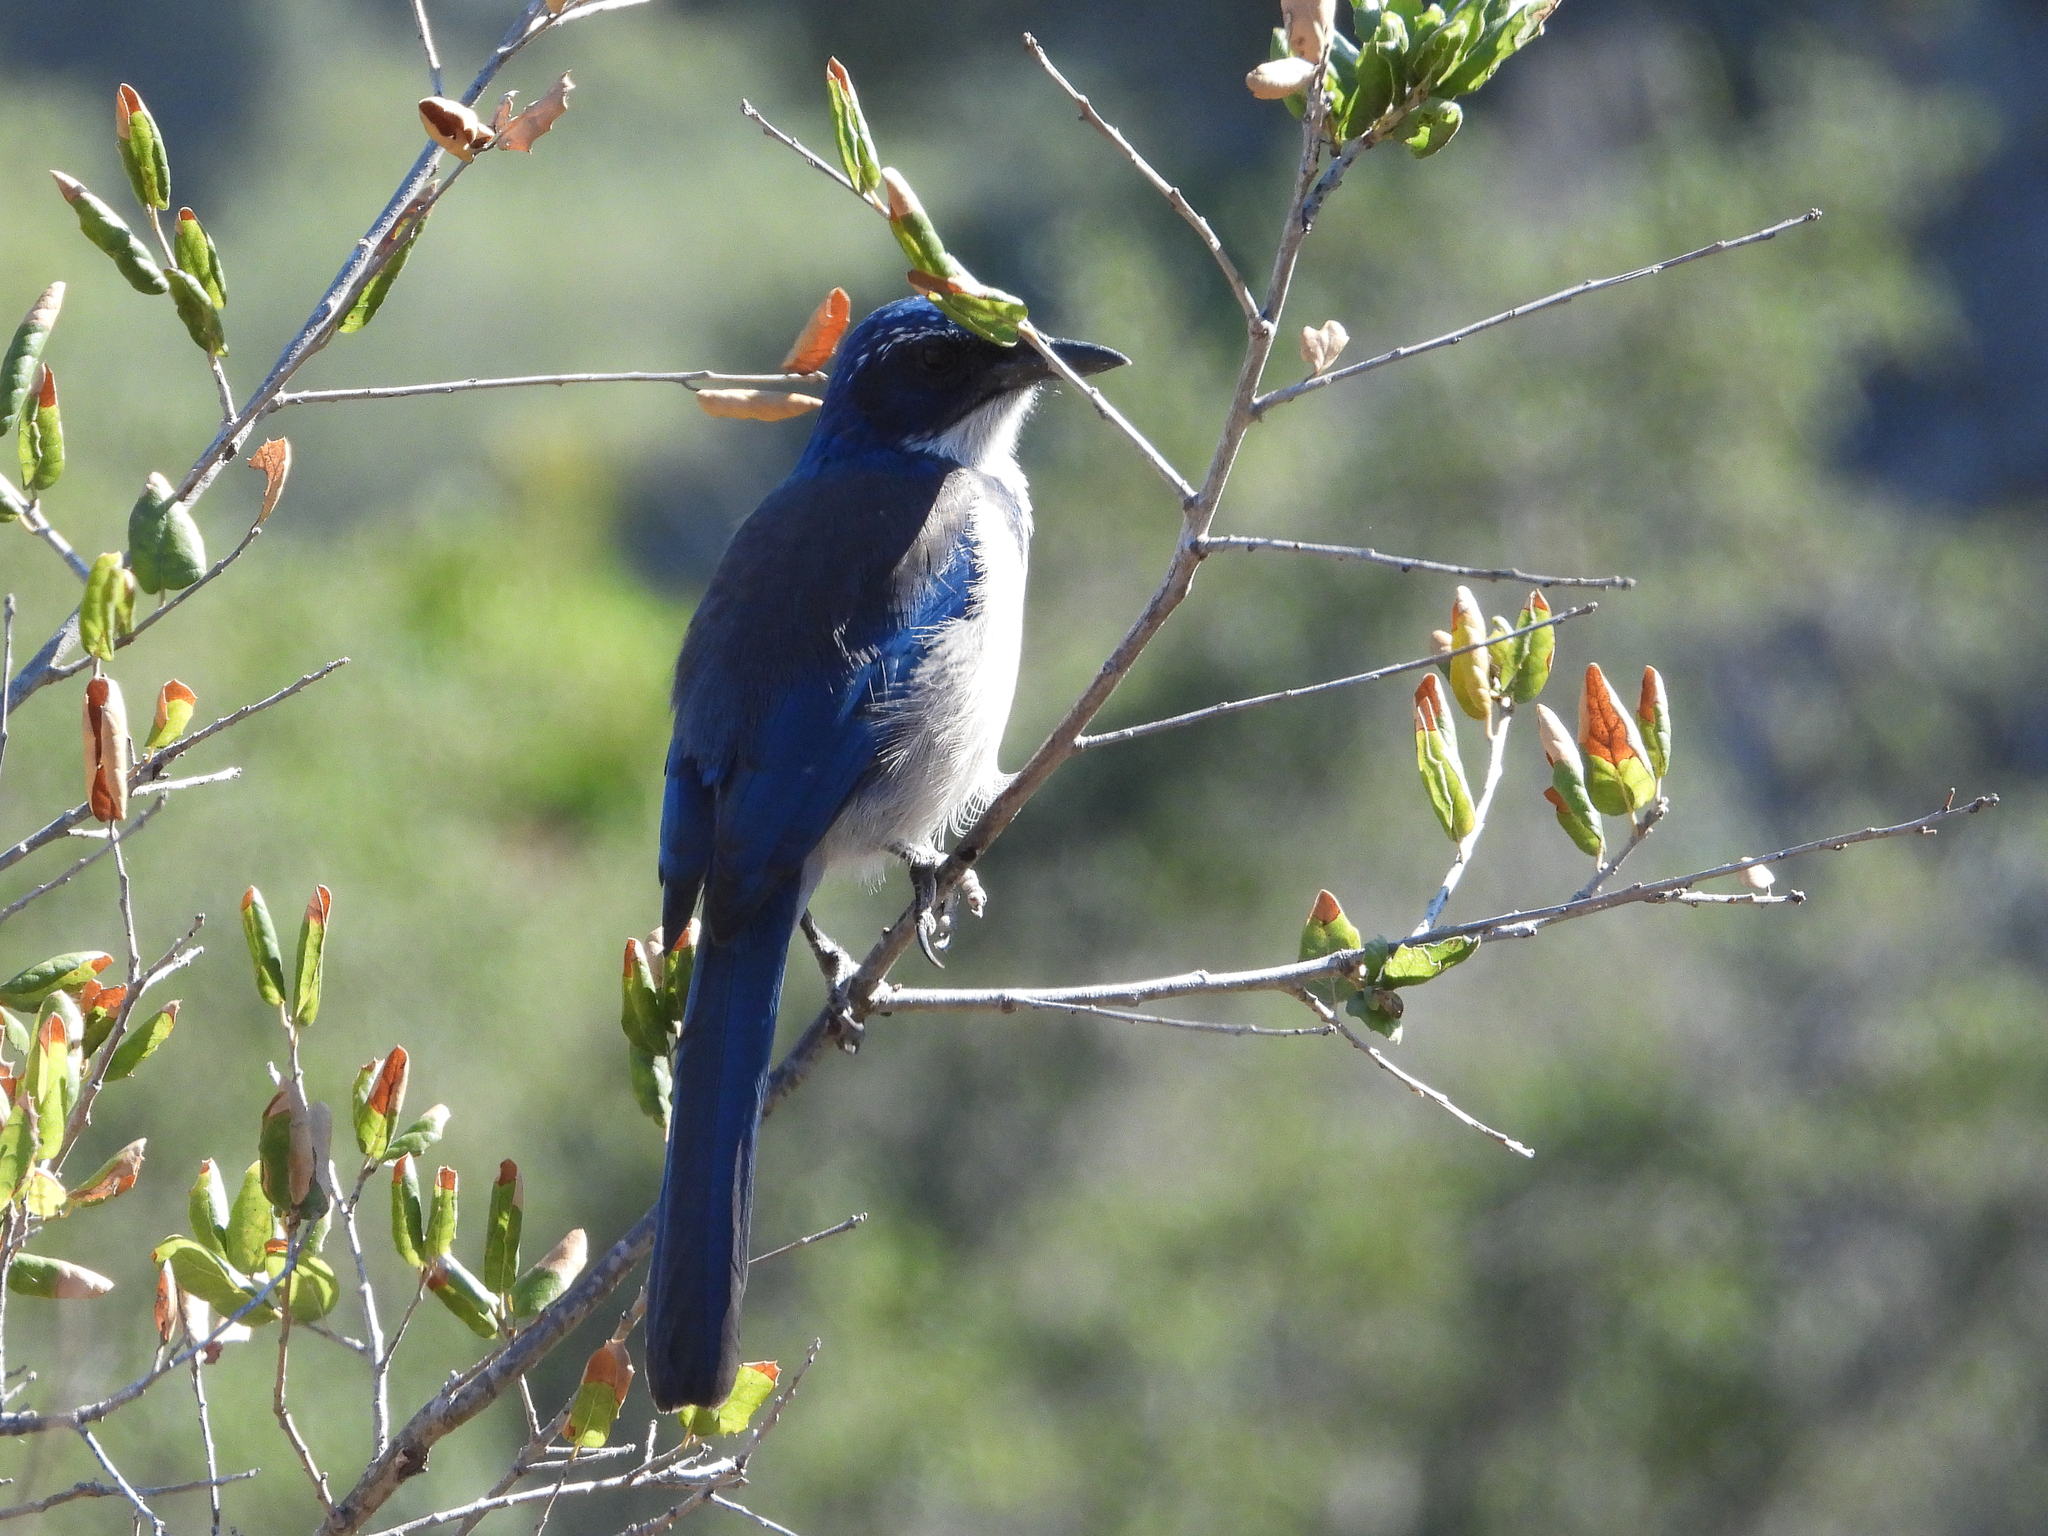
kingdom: Animalia
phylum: Chordata
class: Aves
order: Passeriformes
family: Corvidae
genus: Aphelocoma
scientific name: Aphelocoma insularis
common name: Island scrub-jay
